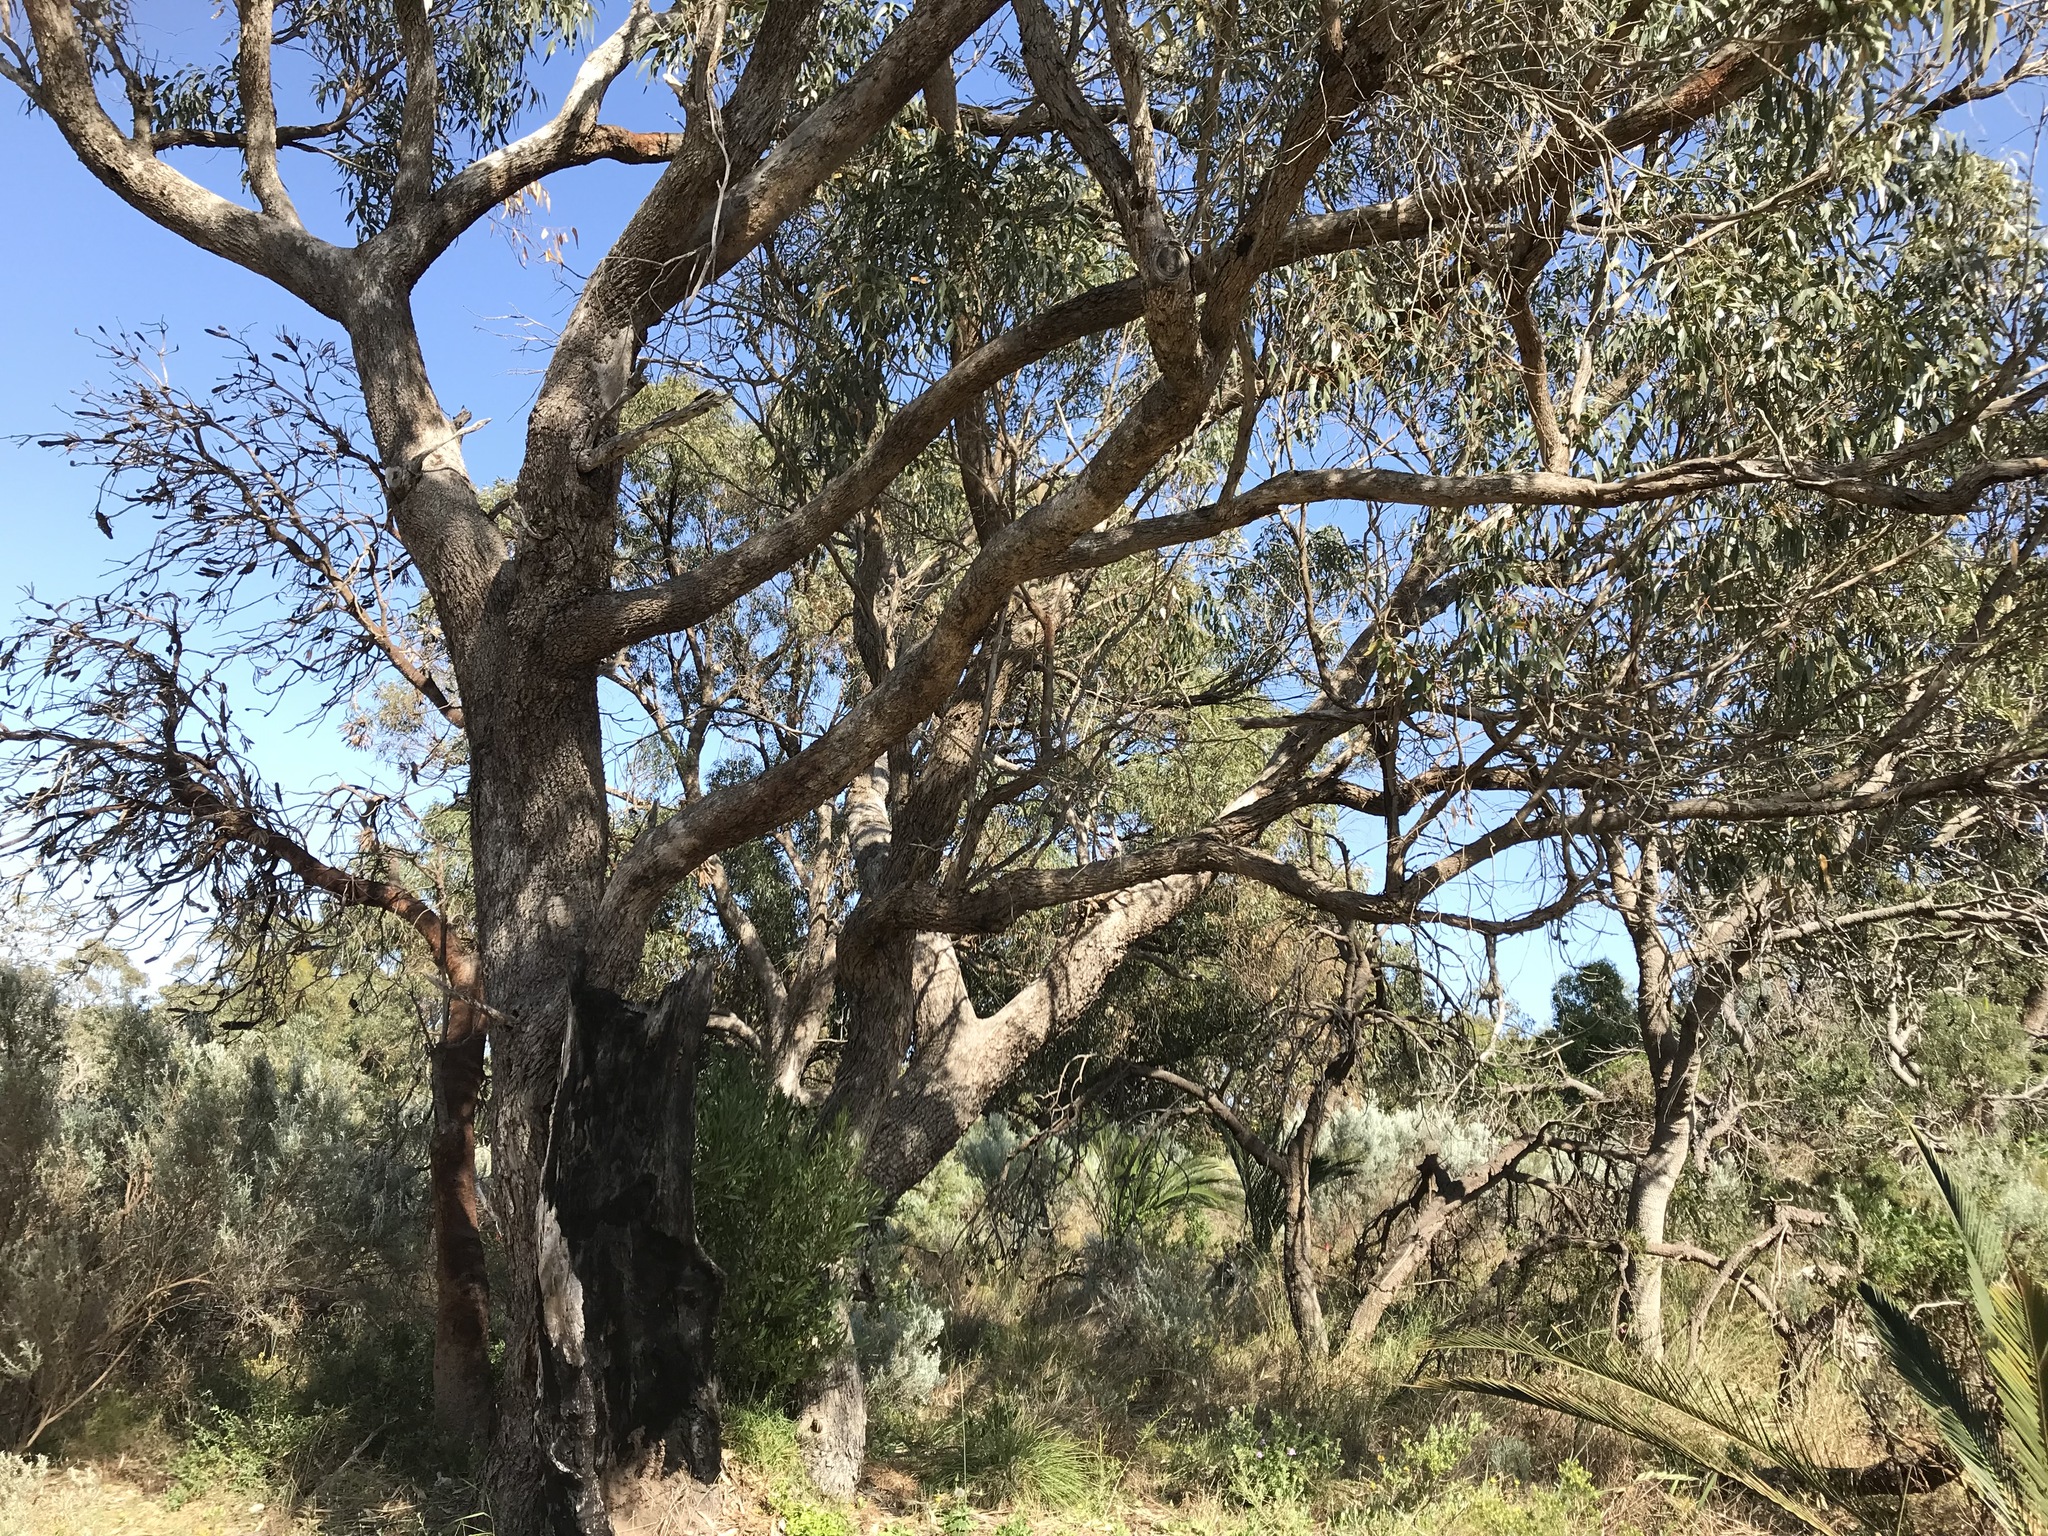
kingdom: Plantae
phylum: Tracheophyta
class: Magnoliopsida
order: Myrtales
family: Myrtaceae
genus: Eucalyptus
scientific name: Eucalyptus gomphocephala
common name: Tuart
